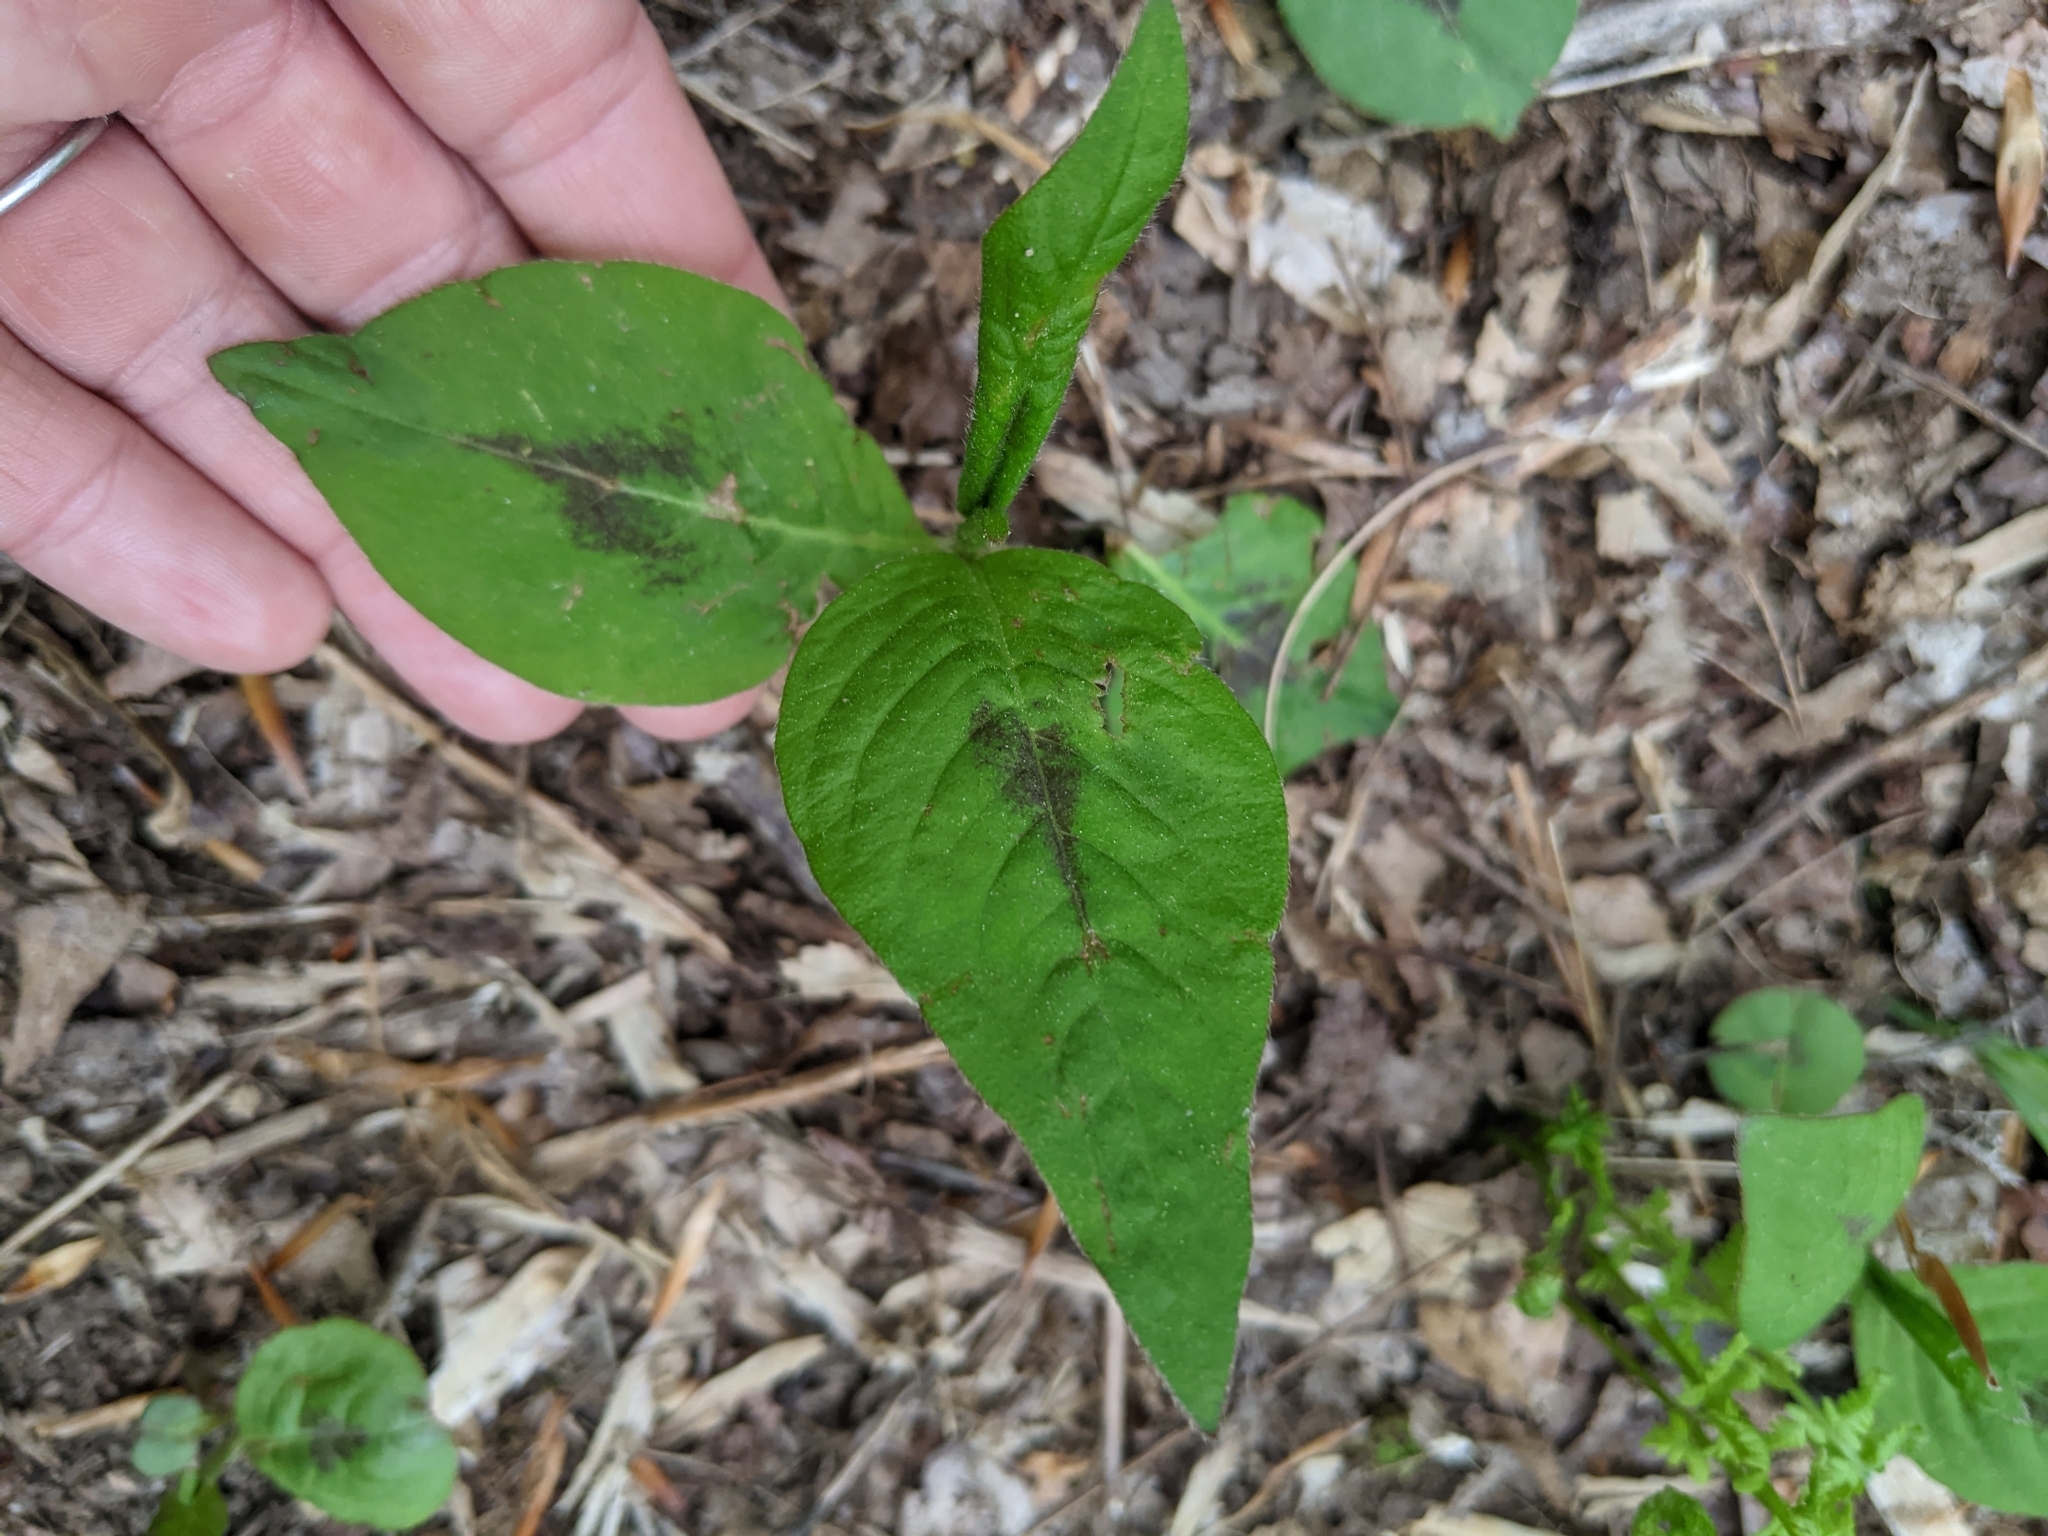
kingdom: Plantae
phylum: Tracheophyta
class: Magnoliopsida
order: Caryophyllales
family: Polygonaceae
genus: Persicaria
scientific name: Persicaria virginiana
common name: Jumpseed
